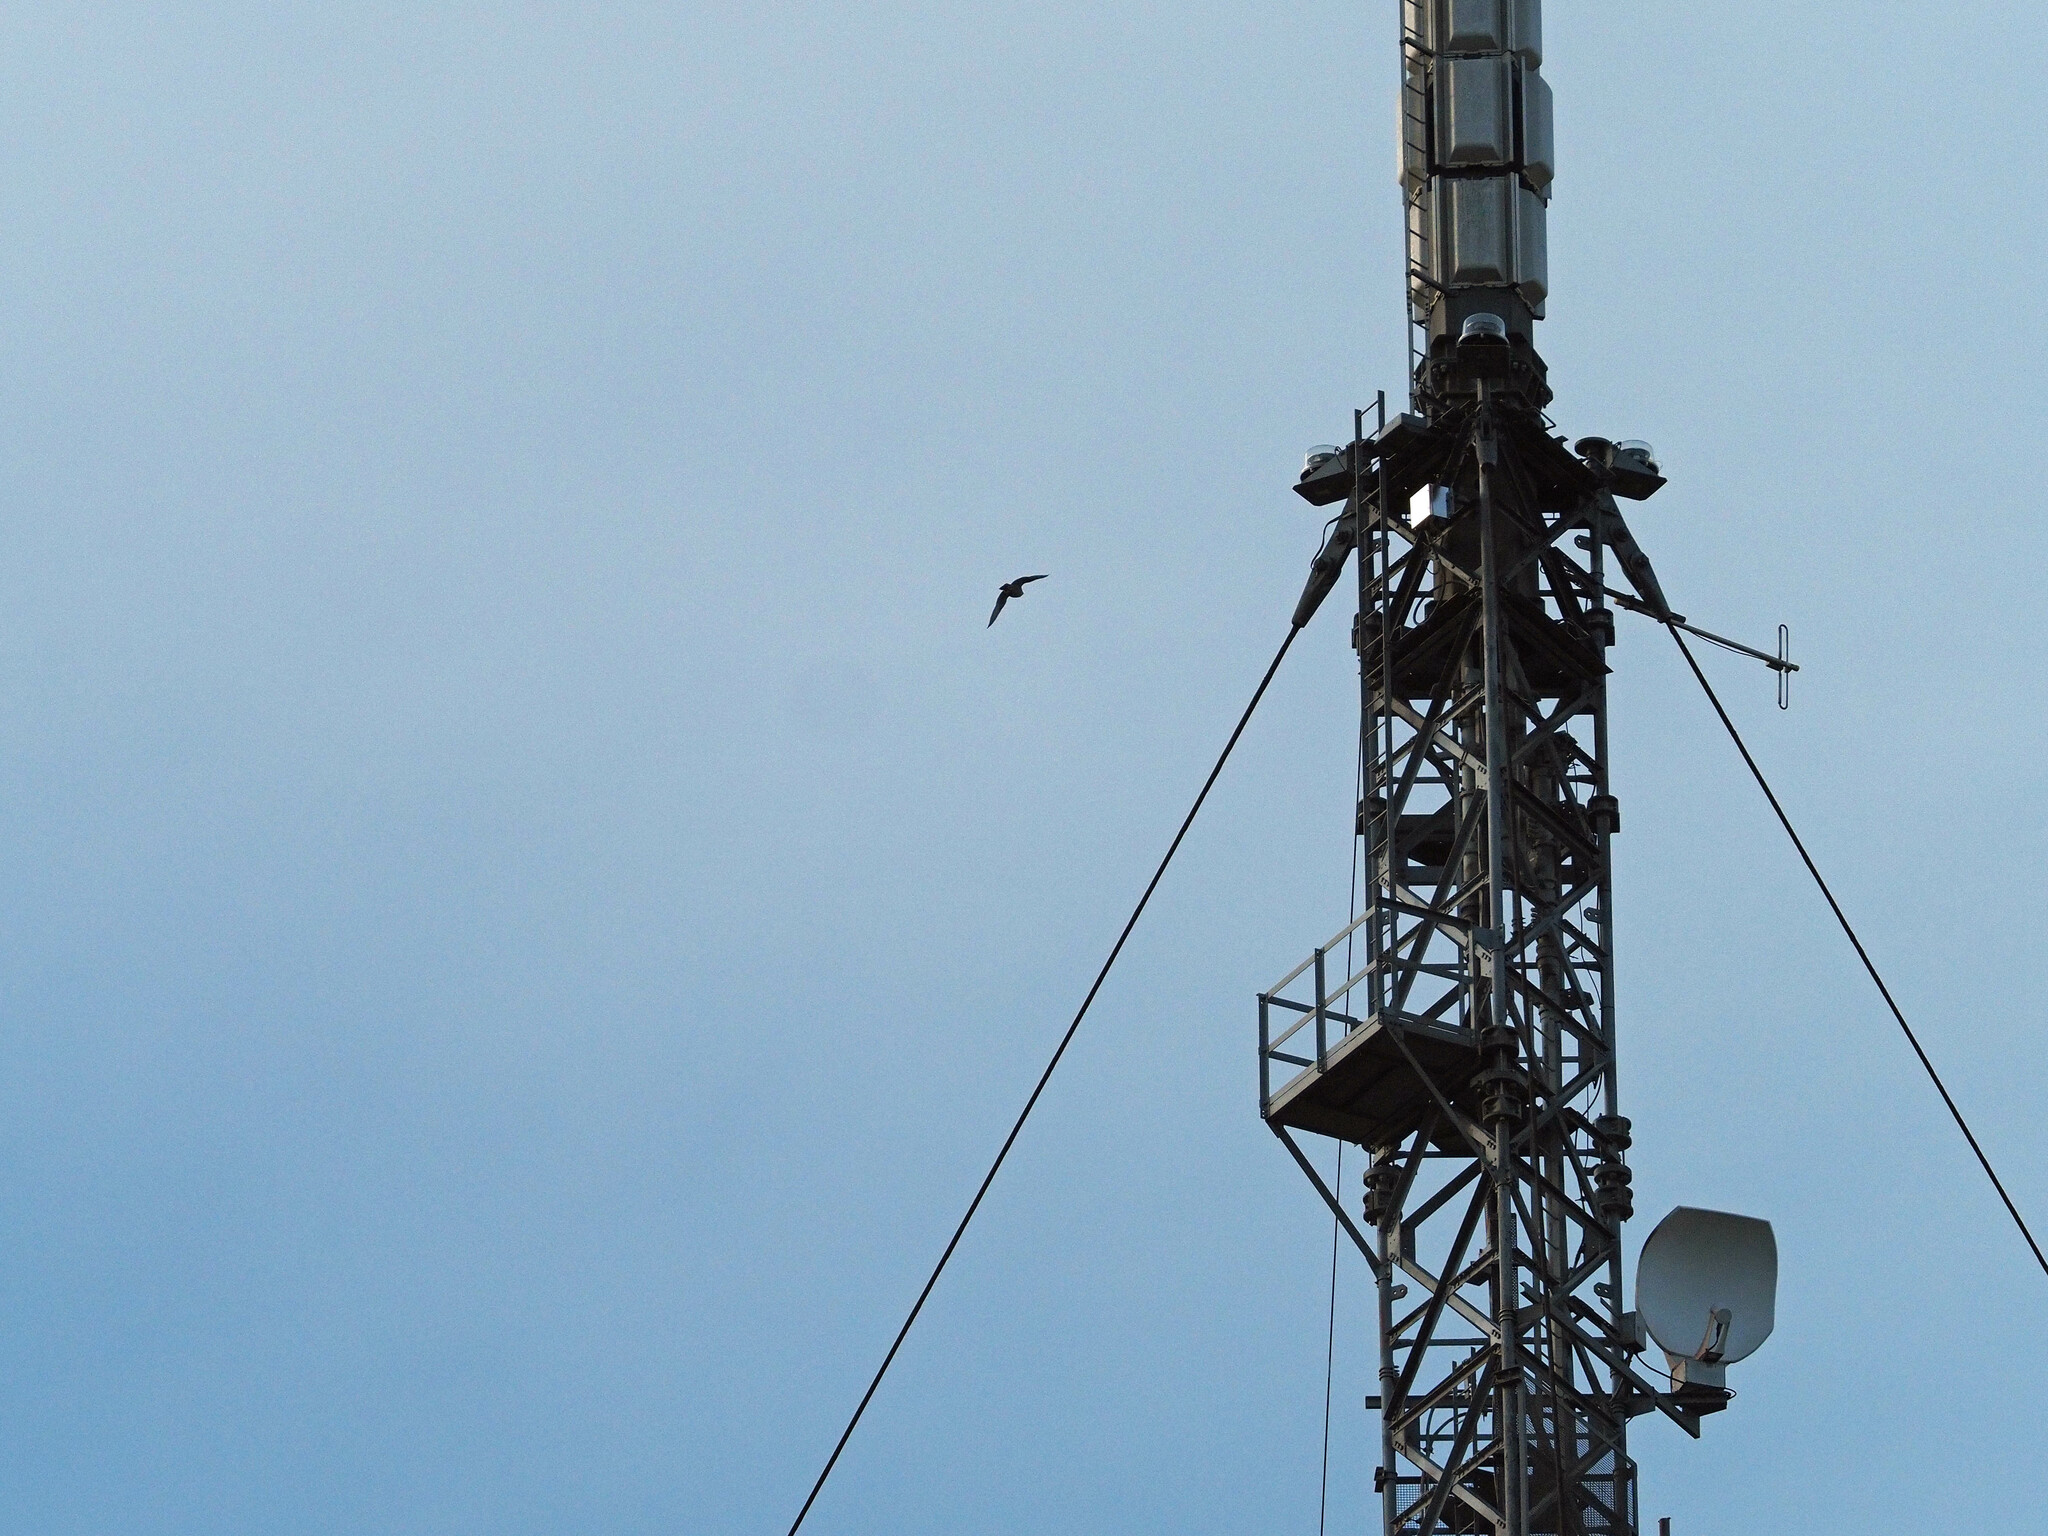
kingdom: Animalia
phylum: Chordata
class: Aves
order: Falconiformes
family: Falconidae
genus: Falco
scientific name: Falco peregrinus
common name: Peregrine falcon
